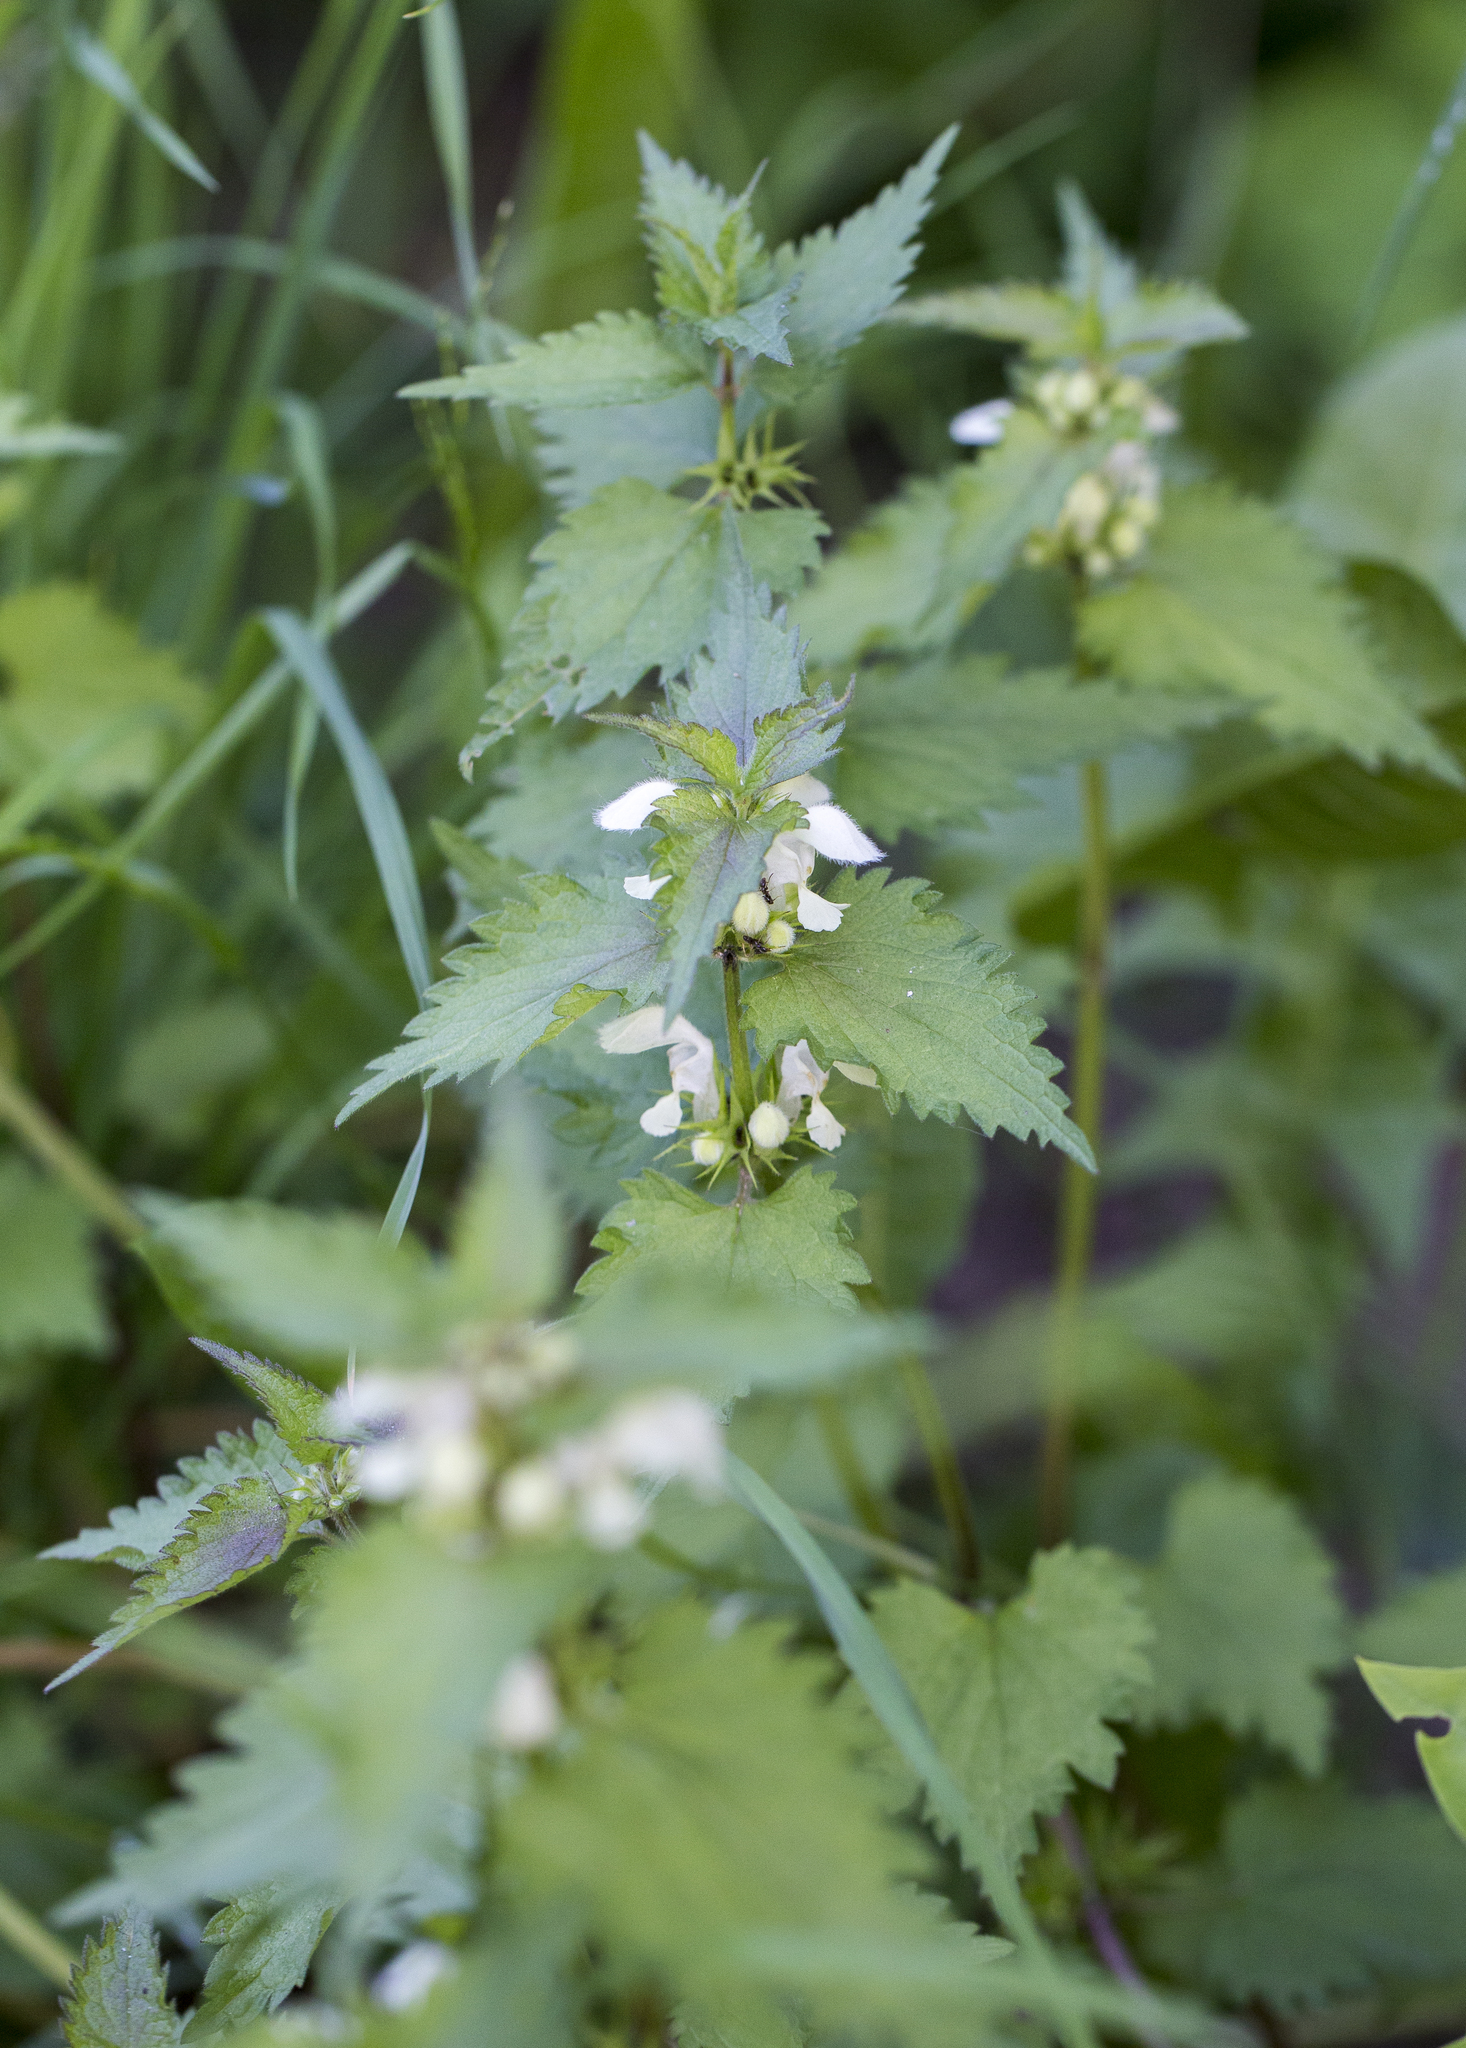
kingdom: Plantae
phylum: Tracheophyta
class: Magnoliopsida
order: Lamiales
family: Lamiaceae
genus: Lamium
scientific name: Lamium album
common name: White dead-nettle
